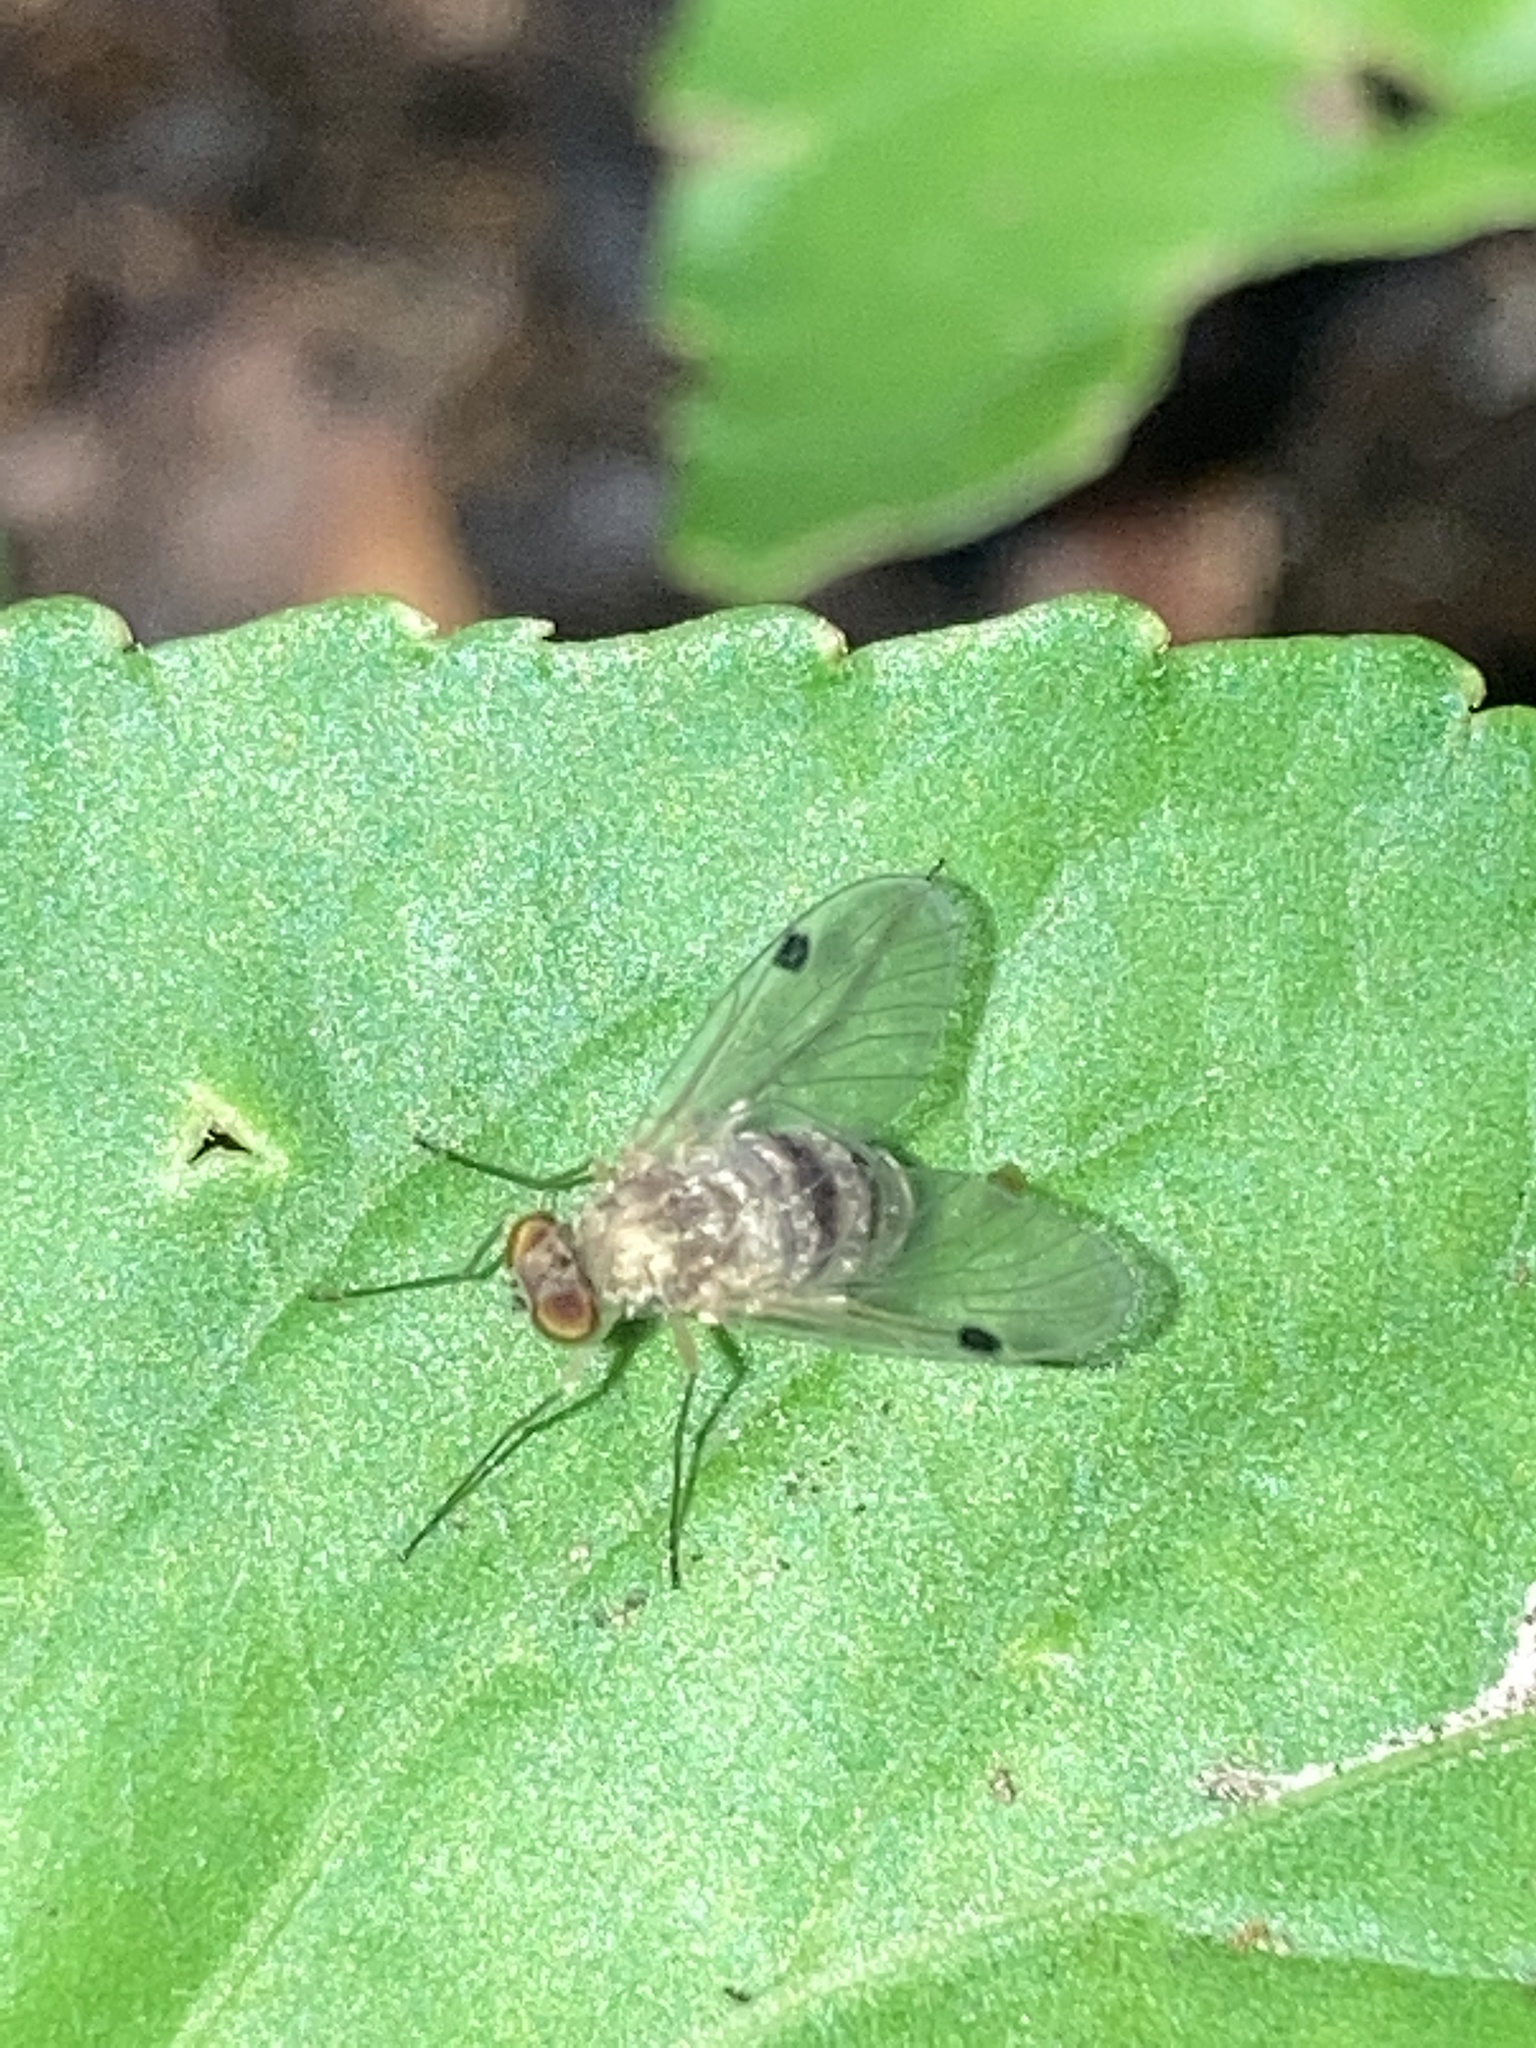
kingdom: Animalia
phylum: Arthropoda
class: Insecta
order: Diptera
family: Rhagionidae
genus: Chrysopilus
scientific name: Chrysopilus modestus
